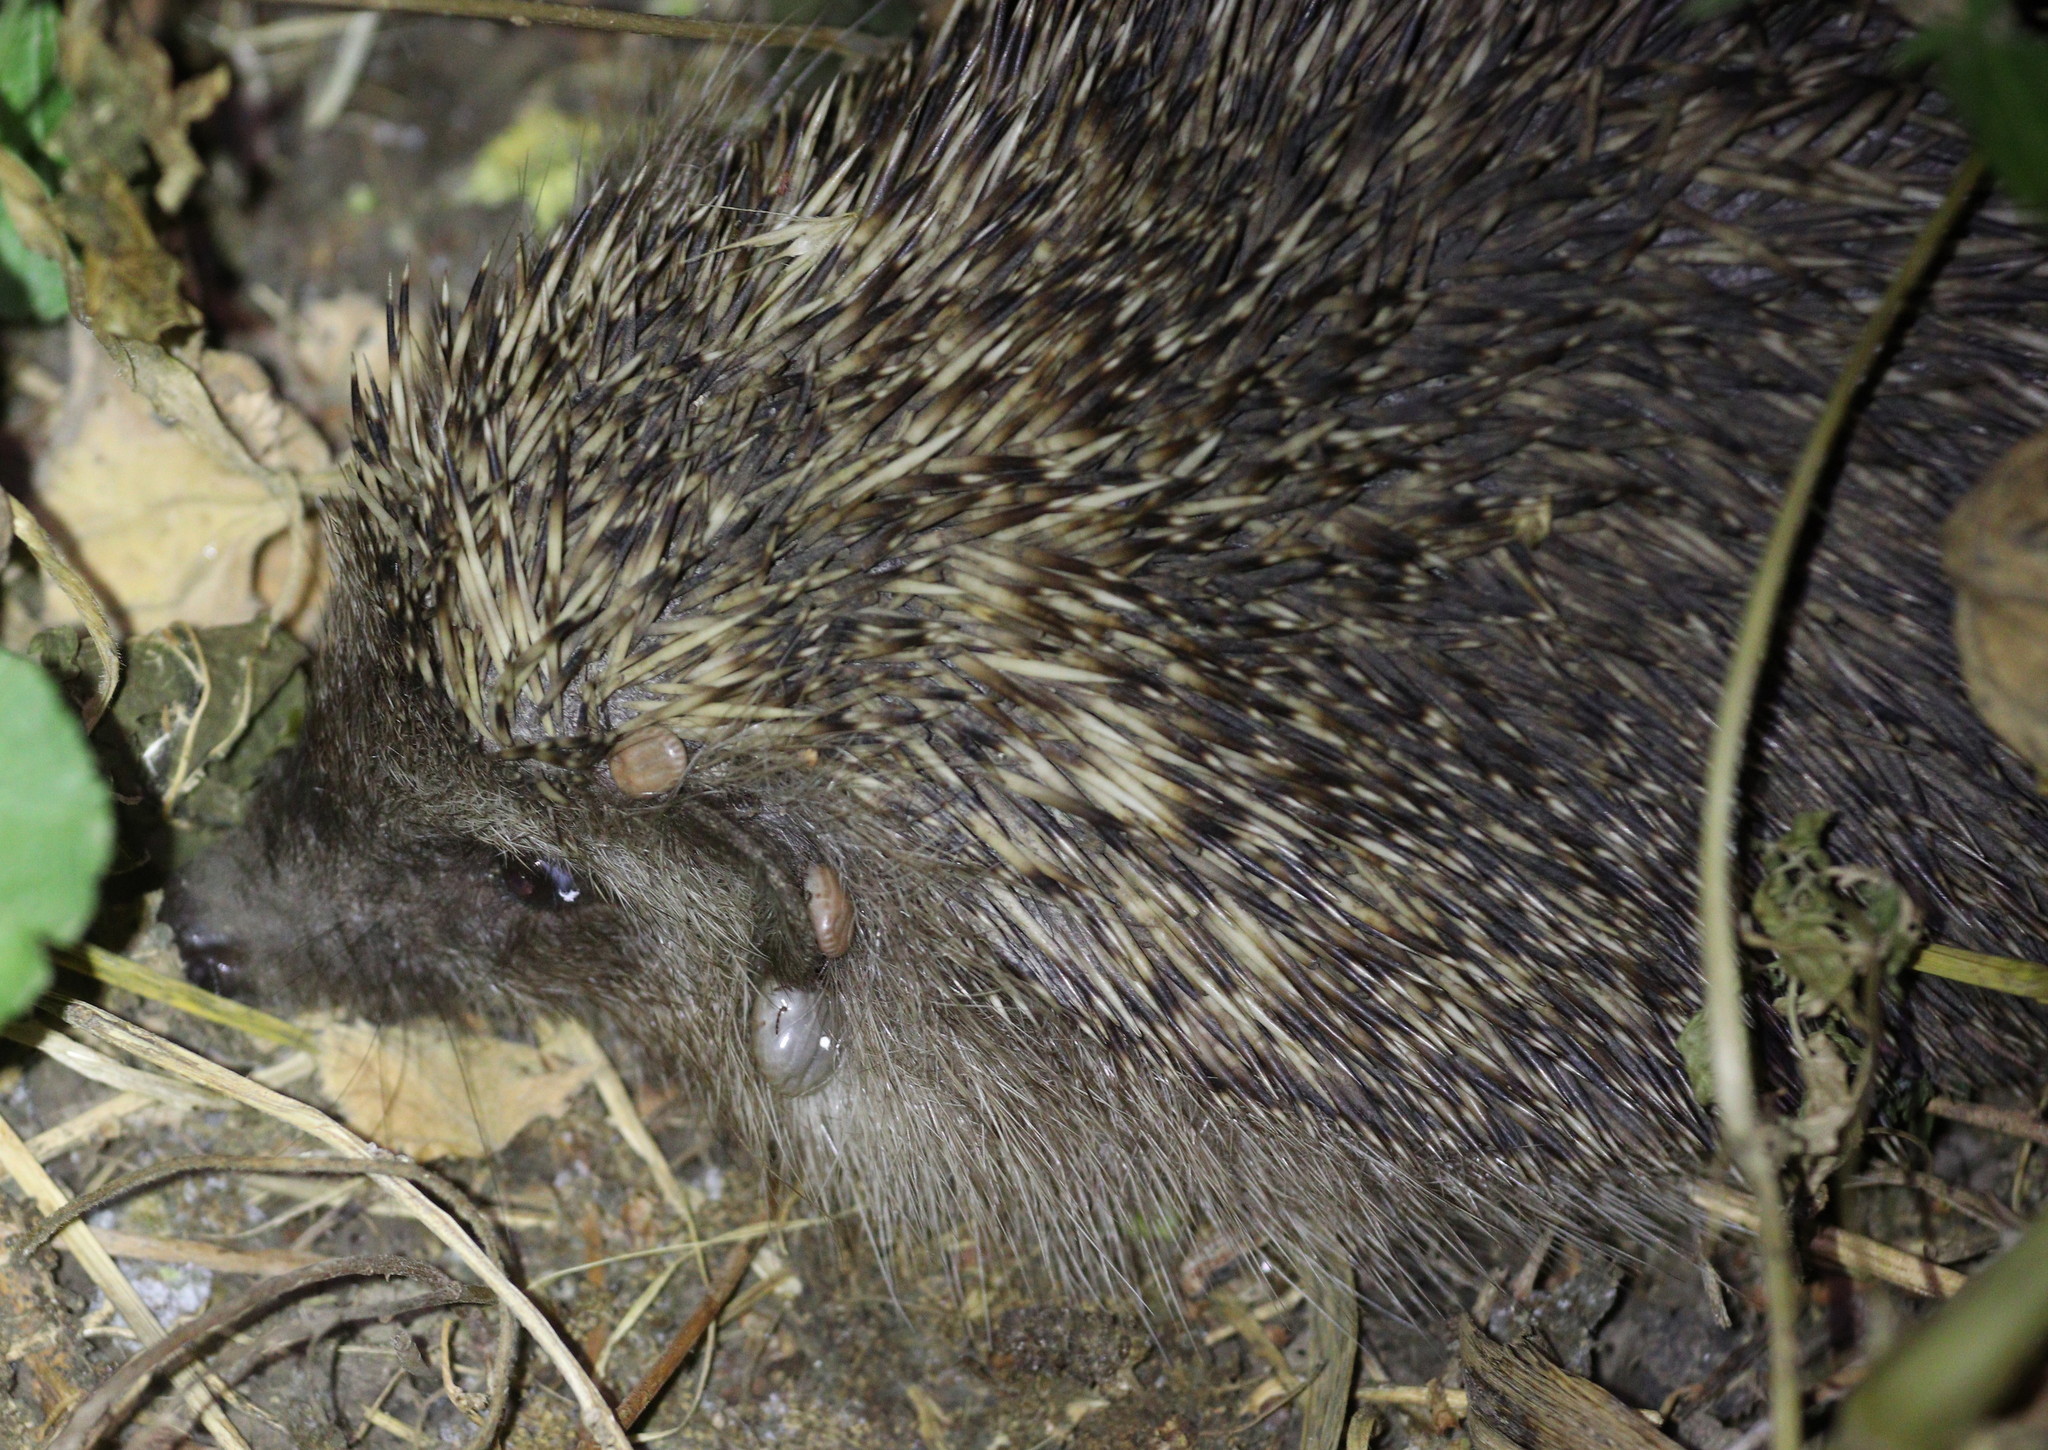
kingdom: Animalia
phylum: Chordata
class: Mammalia
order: Erinaceomorpha
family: Erinaceidae
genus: Erinaceus
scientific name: Erinaceus concolor
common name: Southern white-breasted hedgehog
